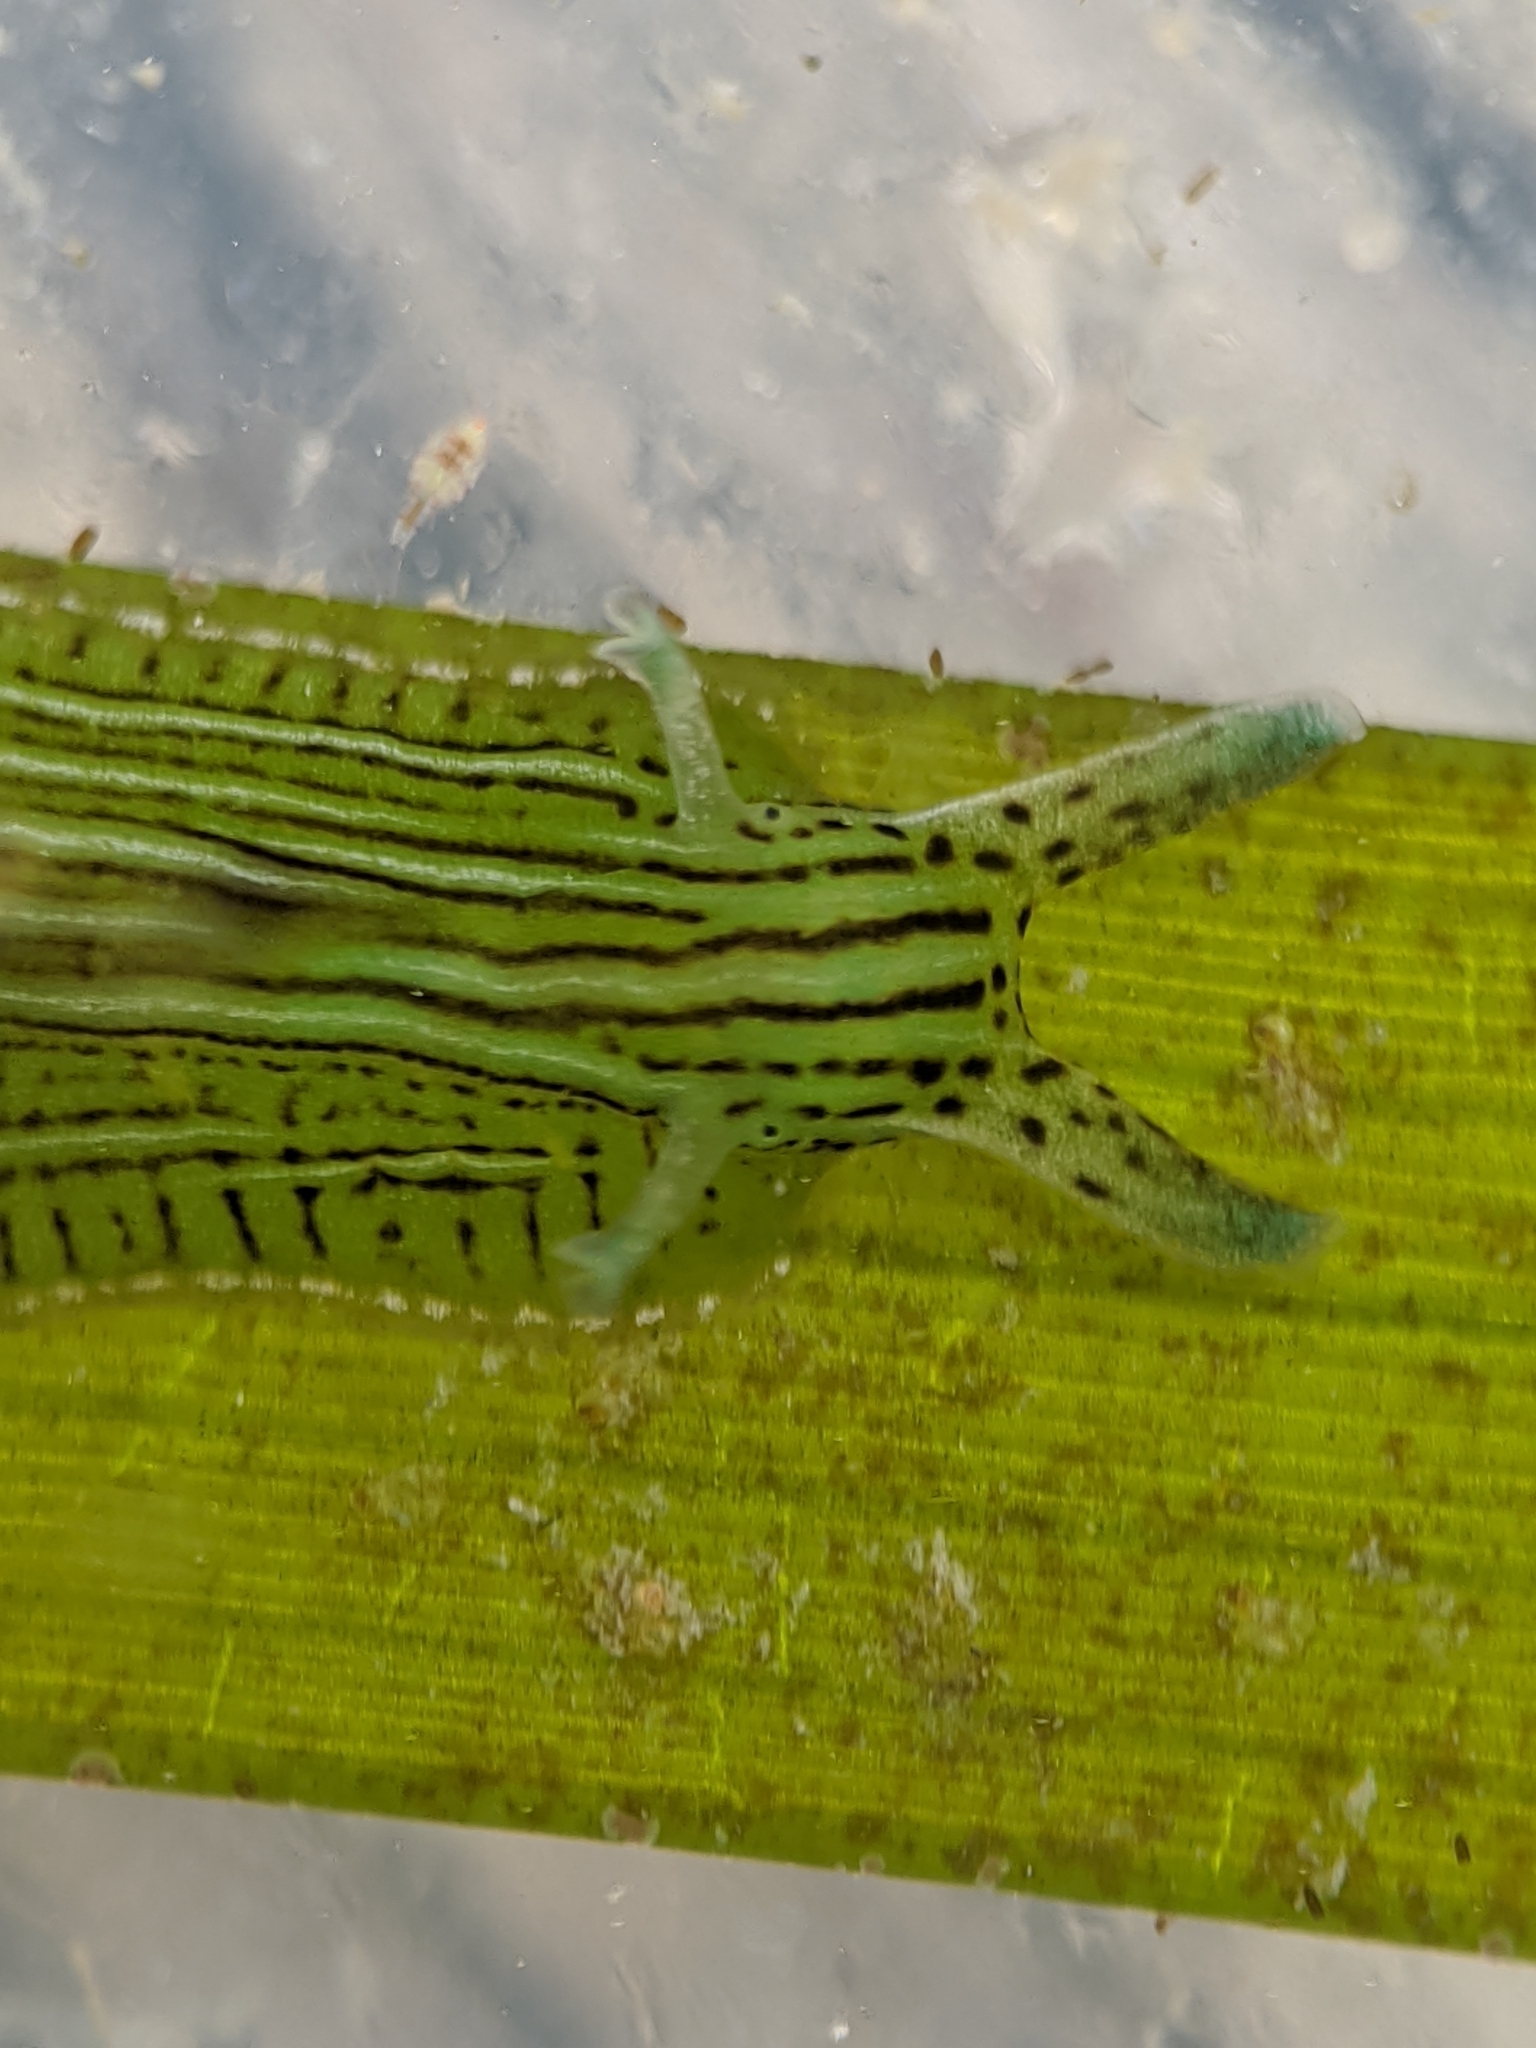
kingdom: Animalia
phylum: Mollusca
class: Gastropoda
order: Aplysiida
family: Aplysiidae
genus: Phyllaplysia
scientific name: Phyllaplysia taylori
